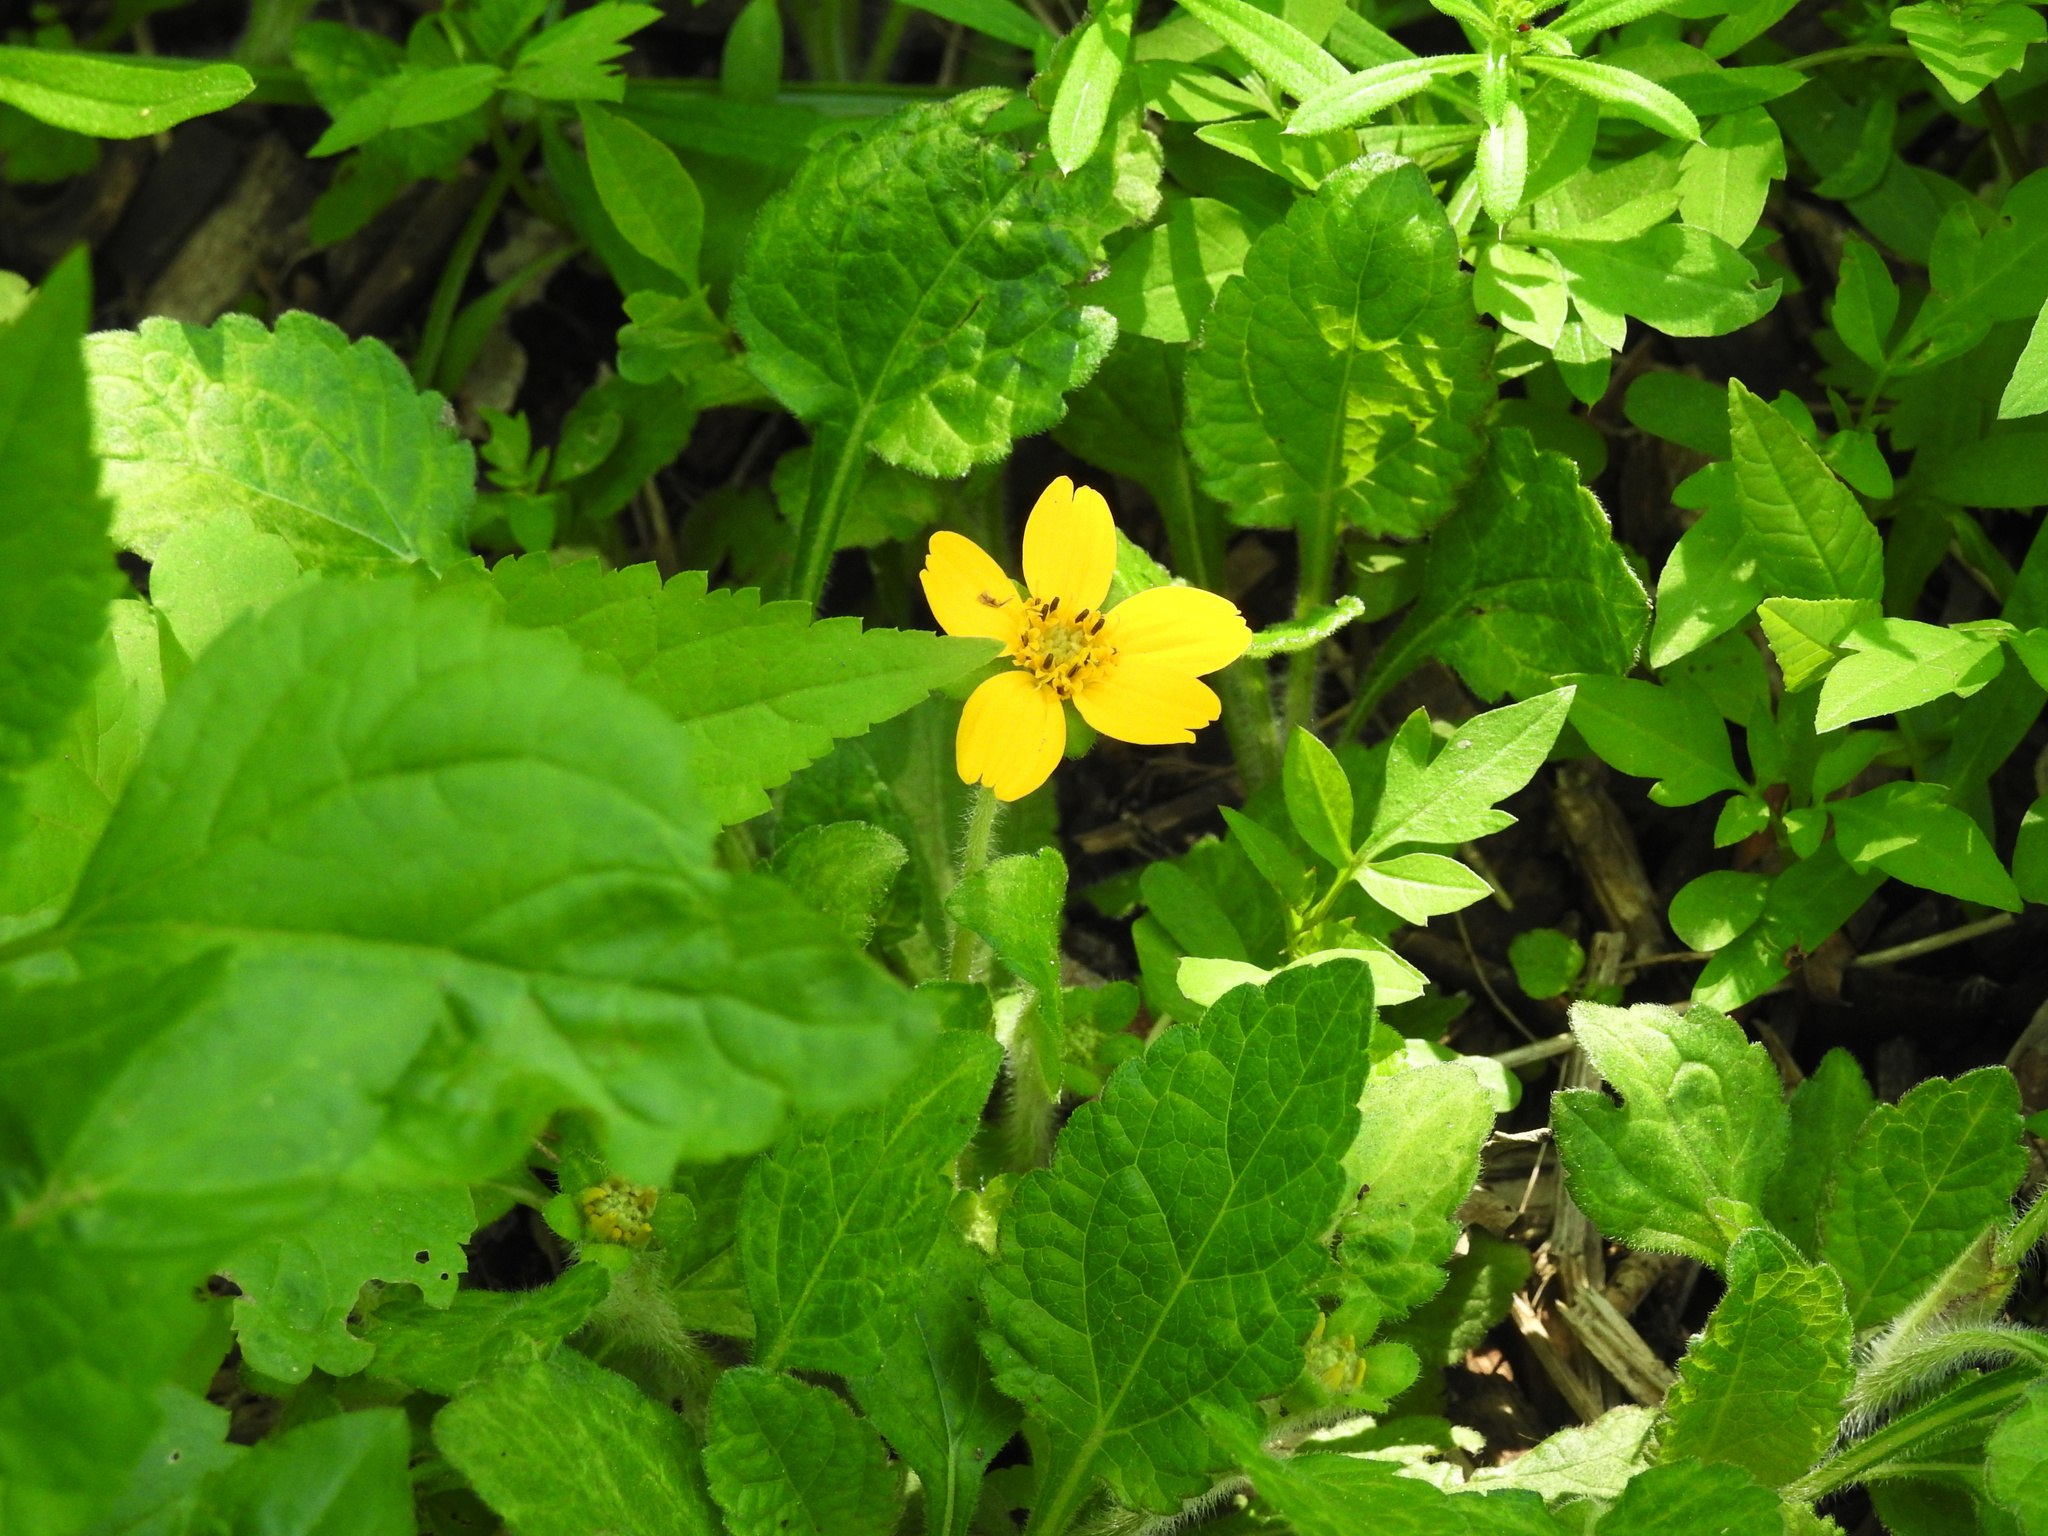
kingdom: Plantae
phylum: Tracheophyta
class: Magnoliopsida
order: Asterales
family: Asteraceae
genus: Chrysogonum
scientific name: Chrysogonum virginianum
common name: Golden-knee
